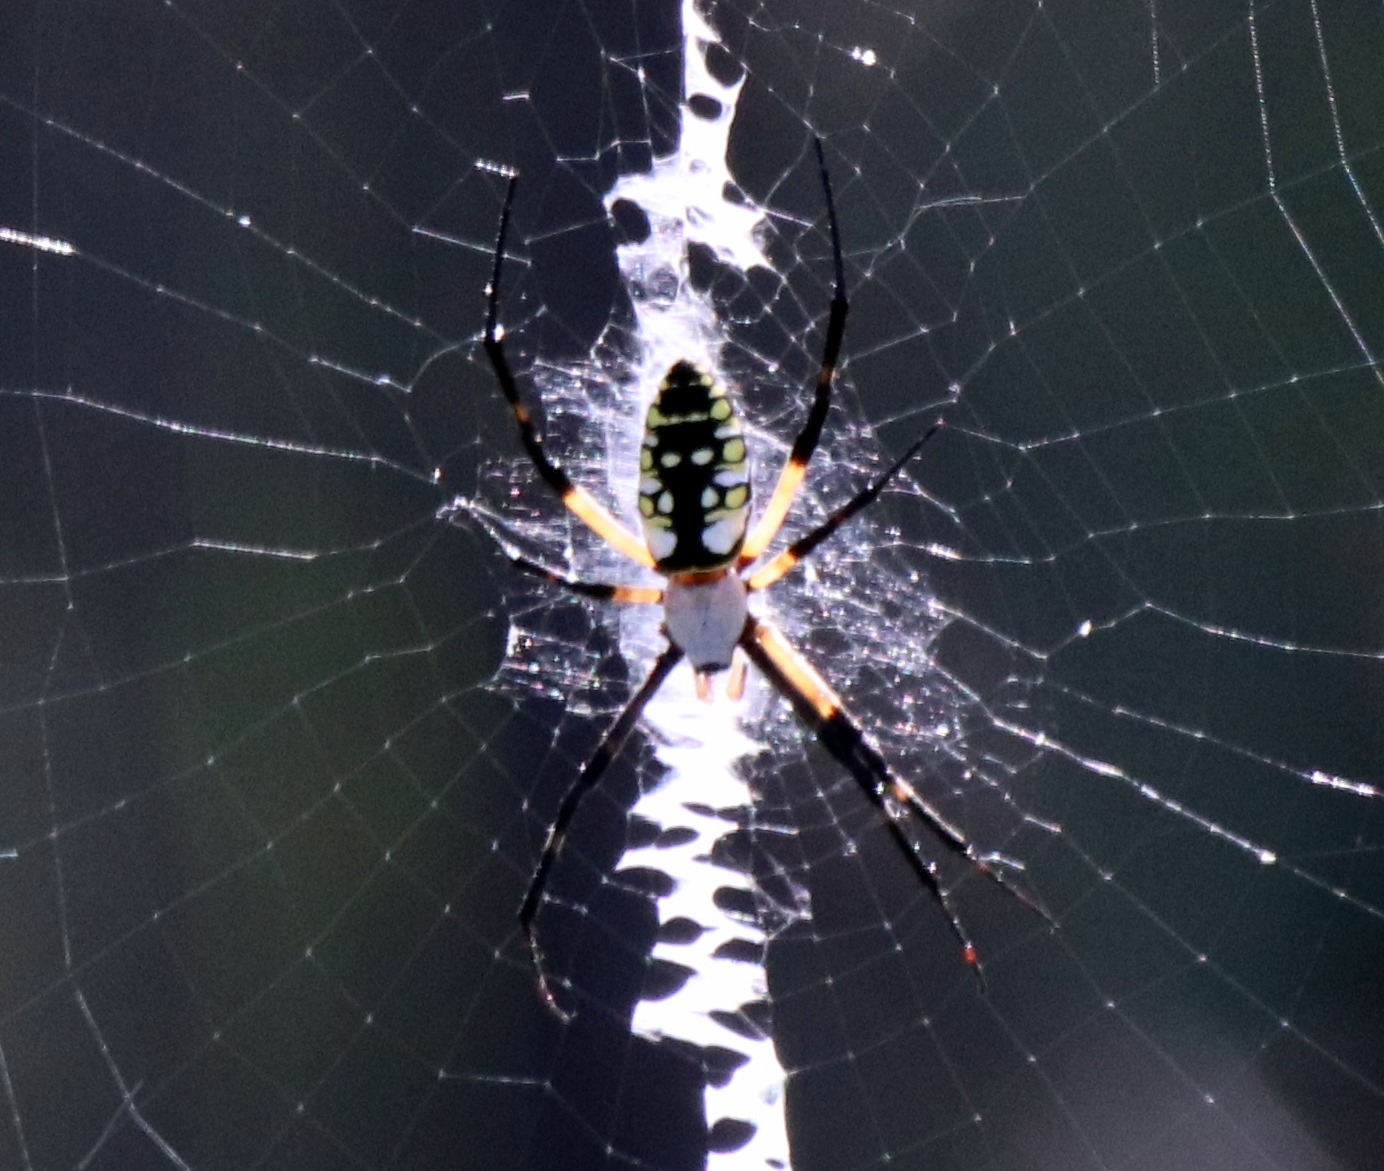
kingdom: Animalia
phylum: Arthropoda
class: Arachnida
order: Araneae
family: Araneidae
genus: Argiope
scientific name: Argiope aurantia
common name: Orb weavers
